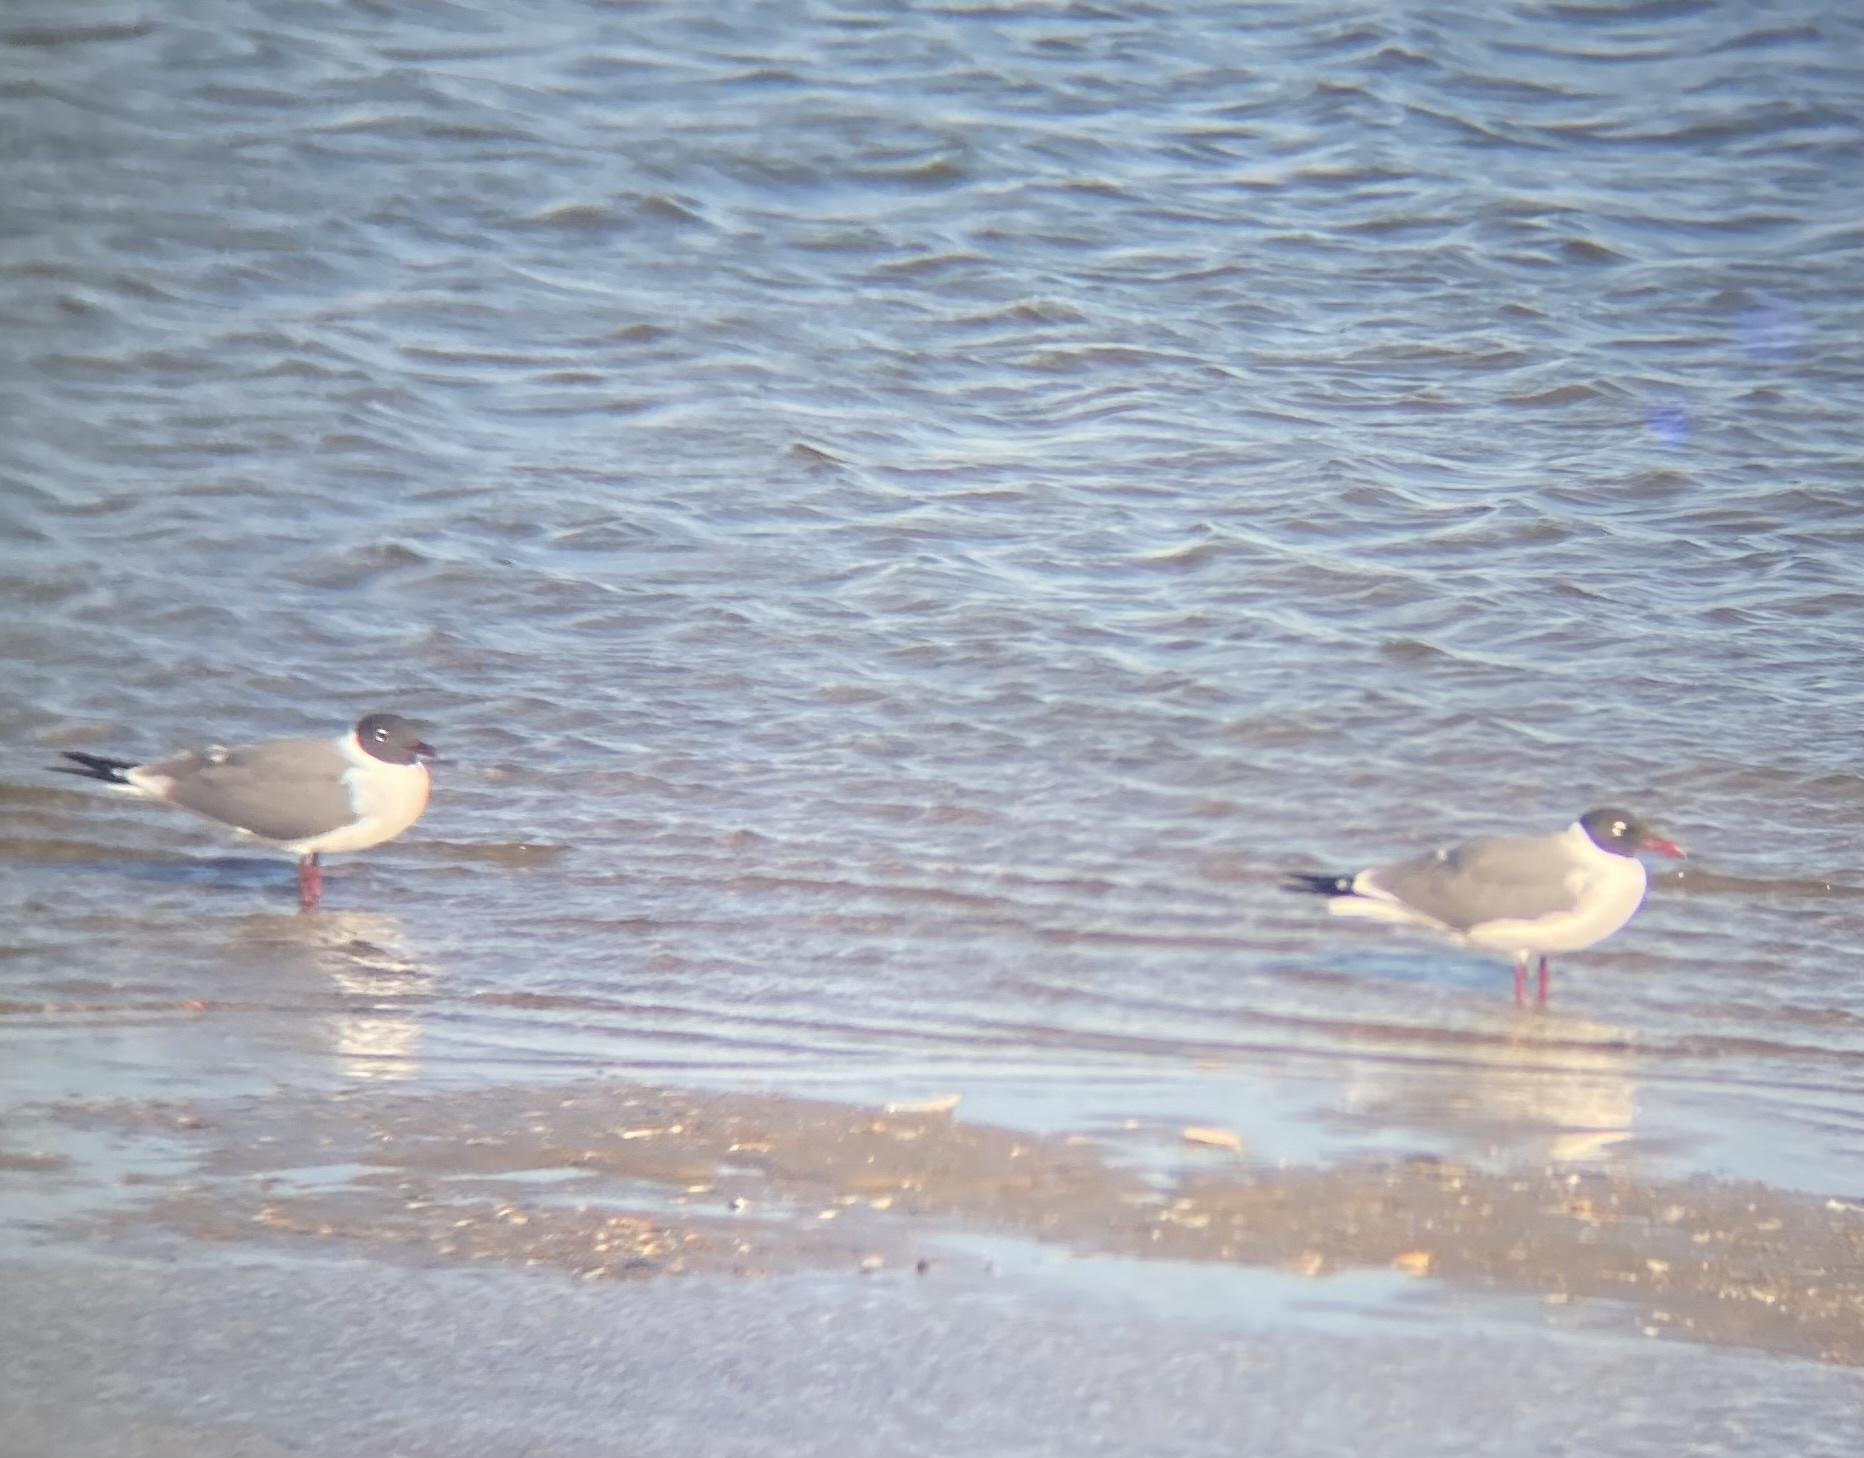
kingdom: Animalia
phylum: Chordata
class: Aves
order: Charadriiformes
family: Laridae
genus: Leucophaeus
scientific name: Leucophaeus atricilla
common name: Laughing gull
